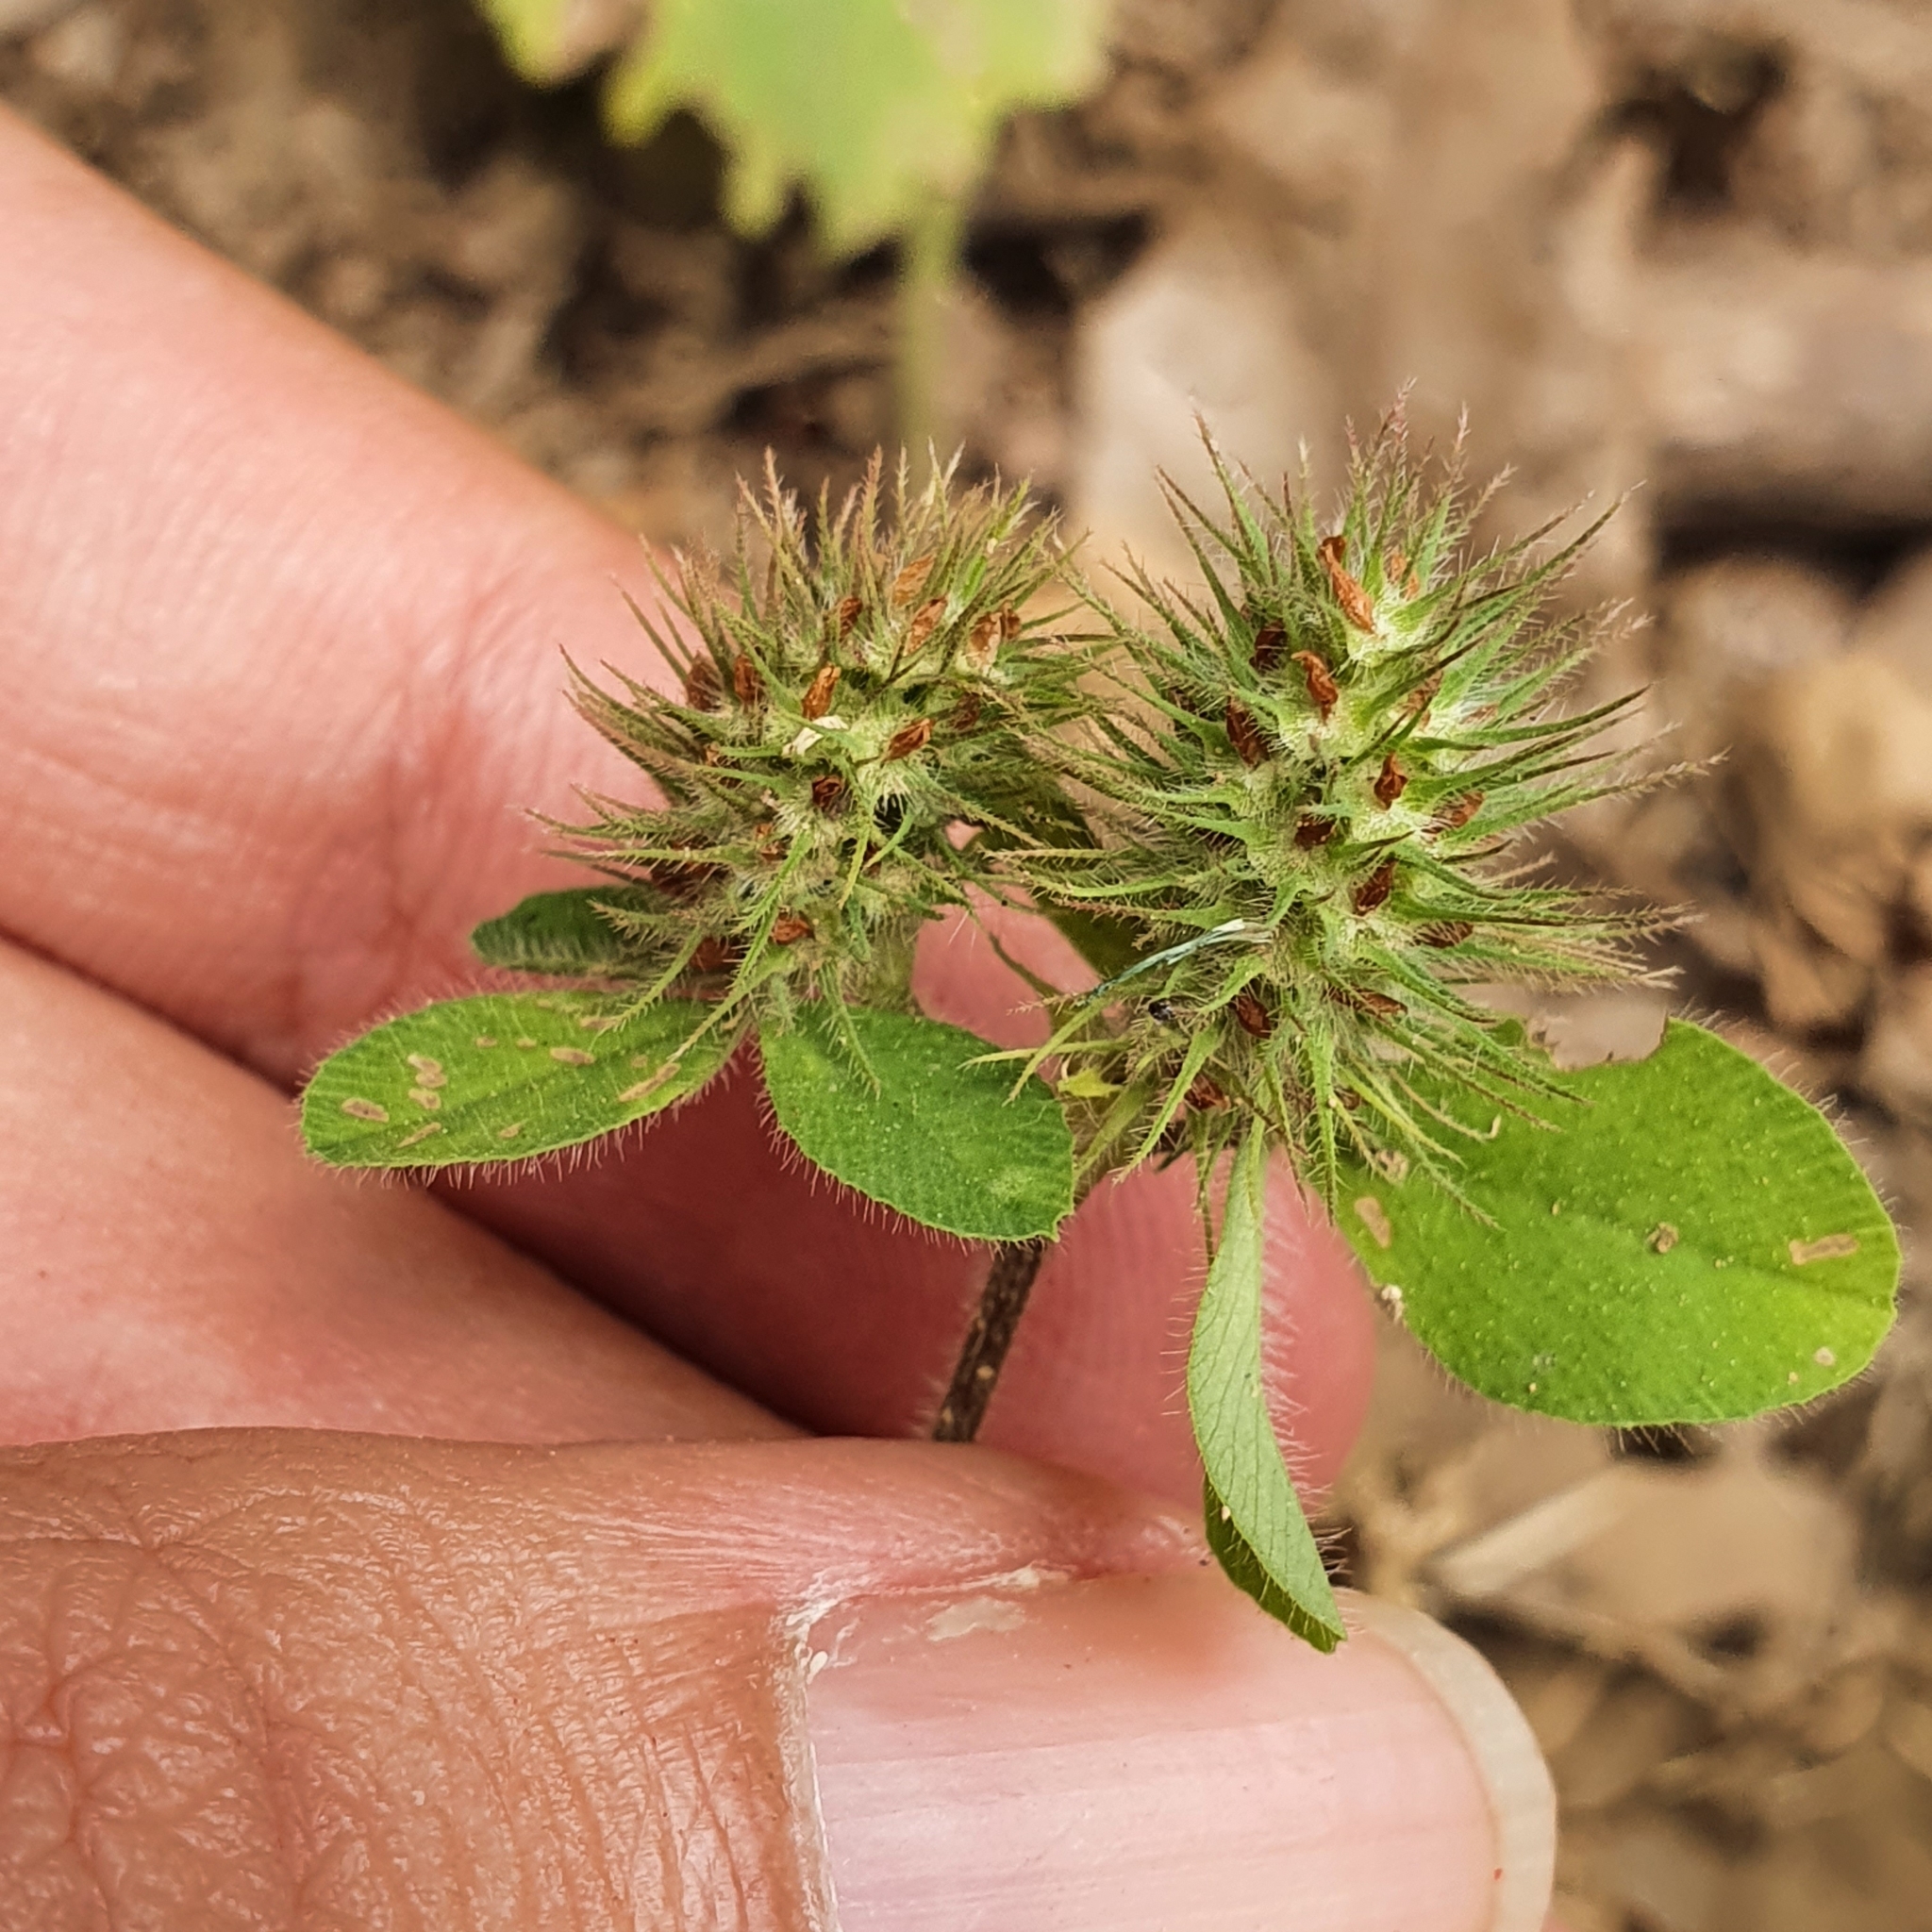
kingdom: Plantae
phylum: Tracheophyta
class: Magnoliopsida
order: Fabales
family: Fabaceae
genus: Trifolium
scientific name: Trifolium lappaceum
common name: Bur clover
